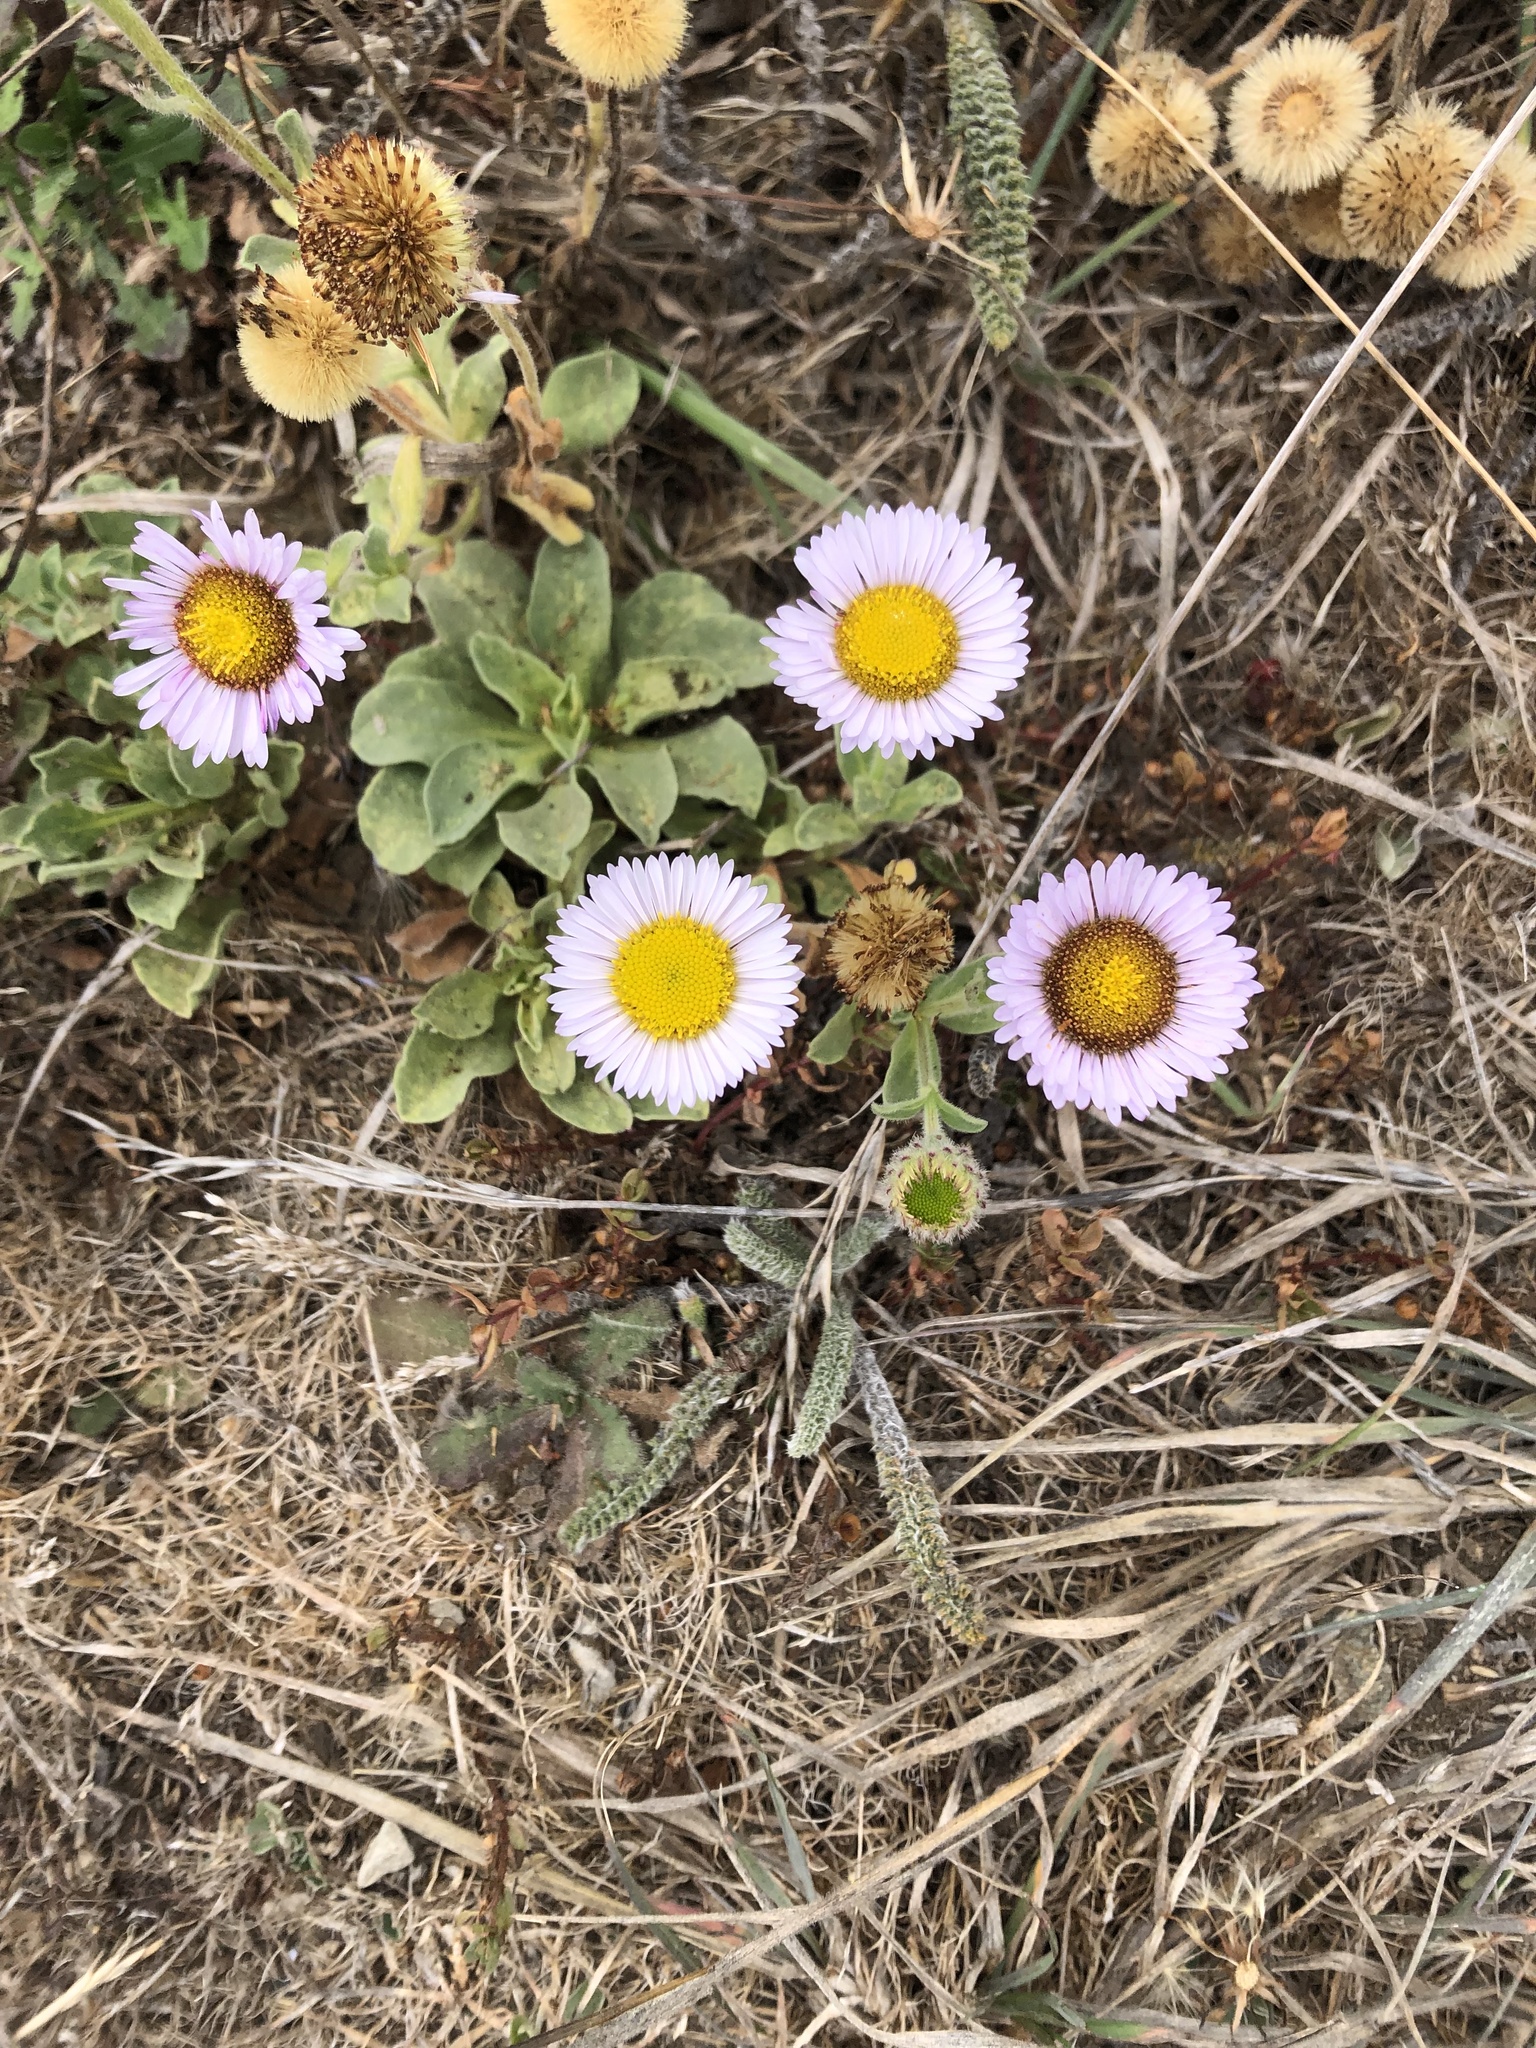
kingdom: Plantae
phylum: Tracheophyta
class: Magnoliopsida
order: Asterales
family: Asteraceae
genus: Erigeron
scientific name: Erigeron glaucus
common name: Seaside daisy
